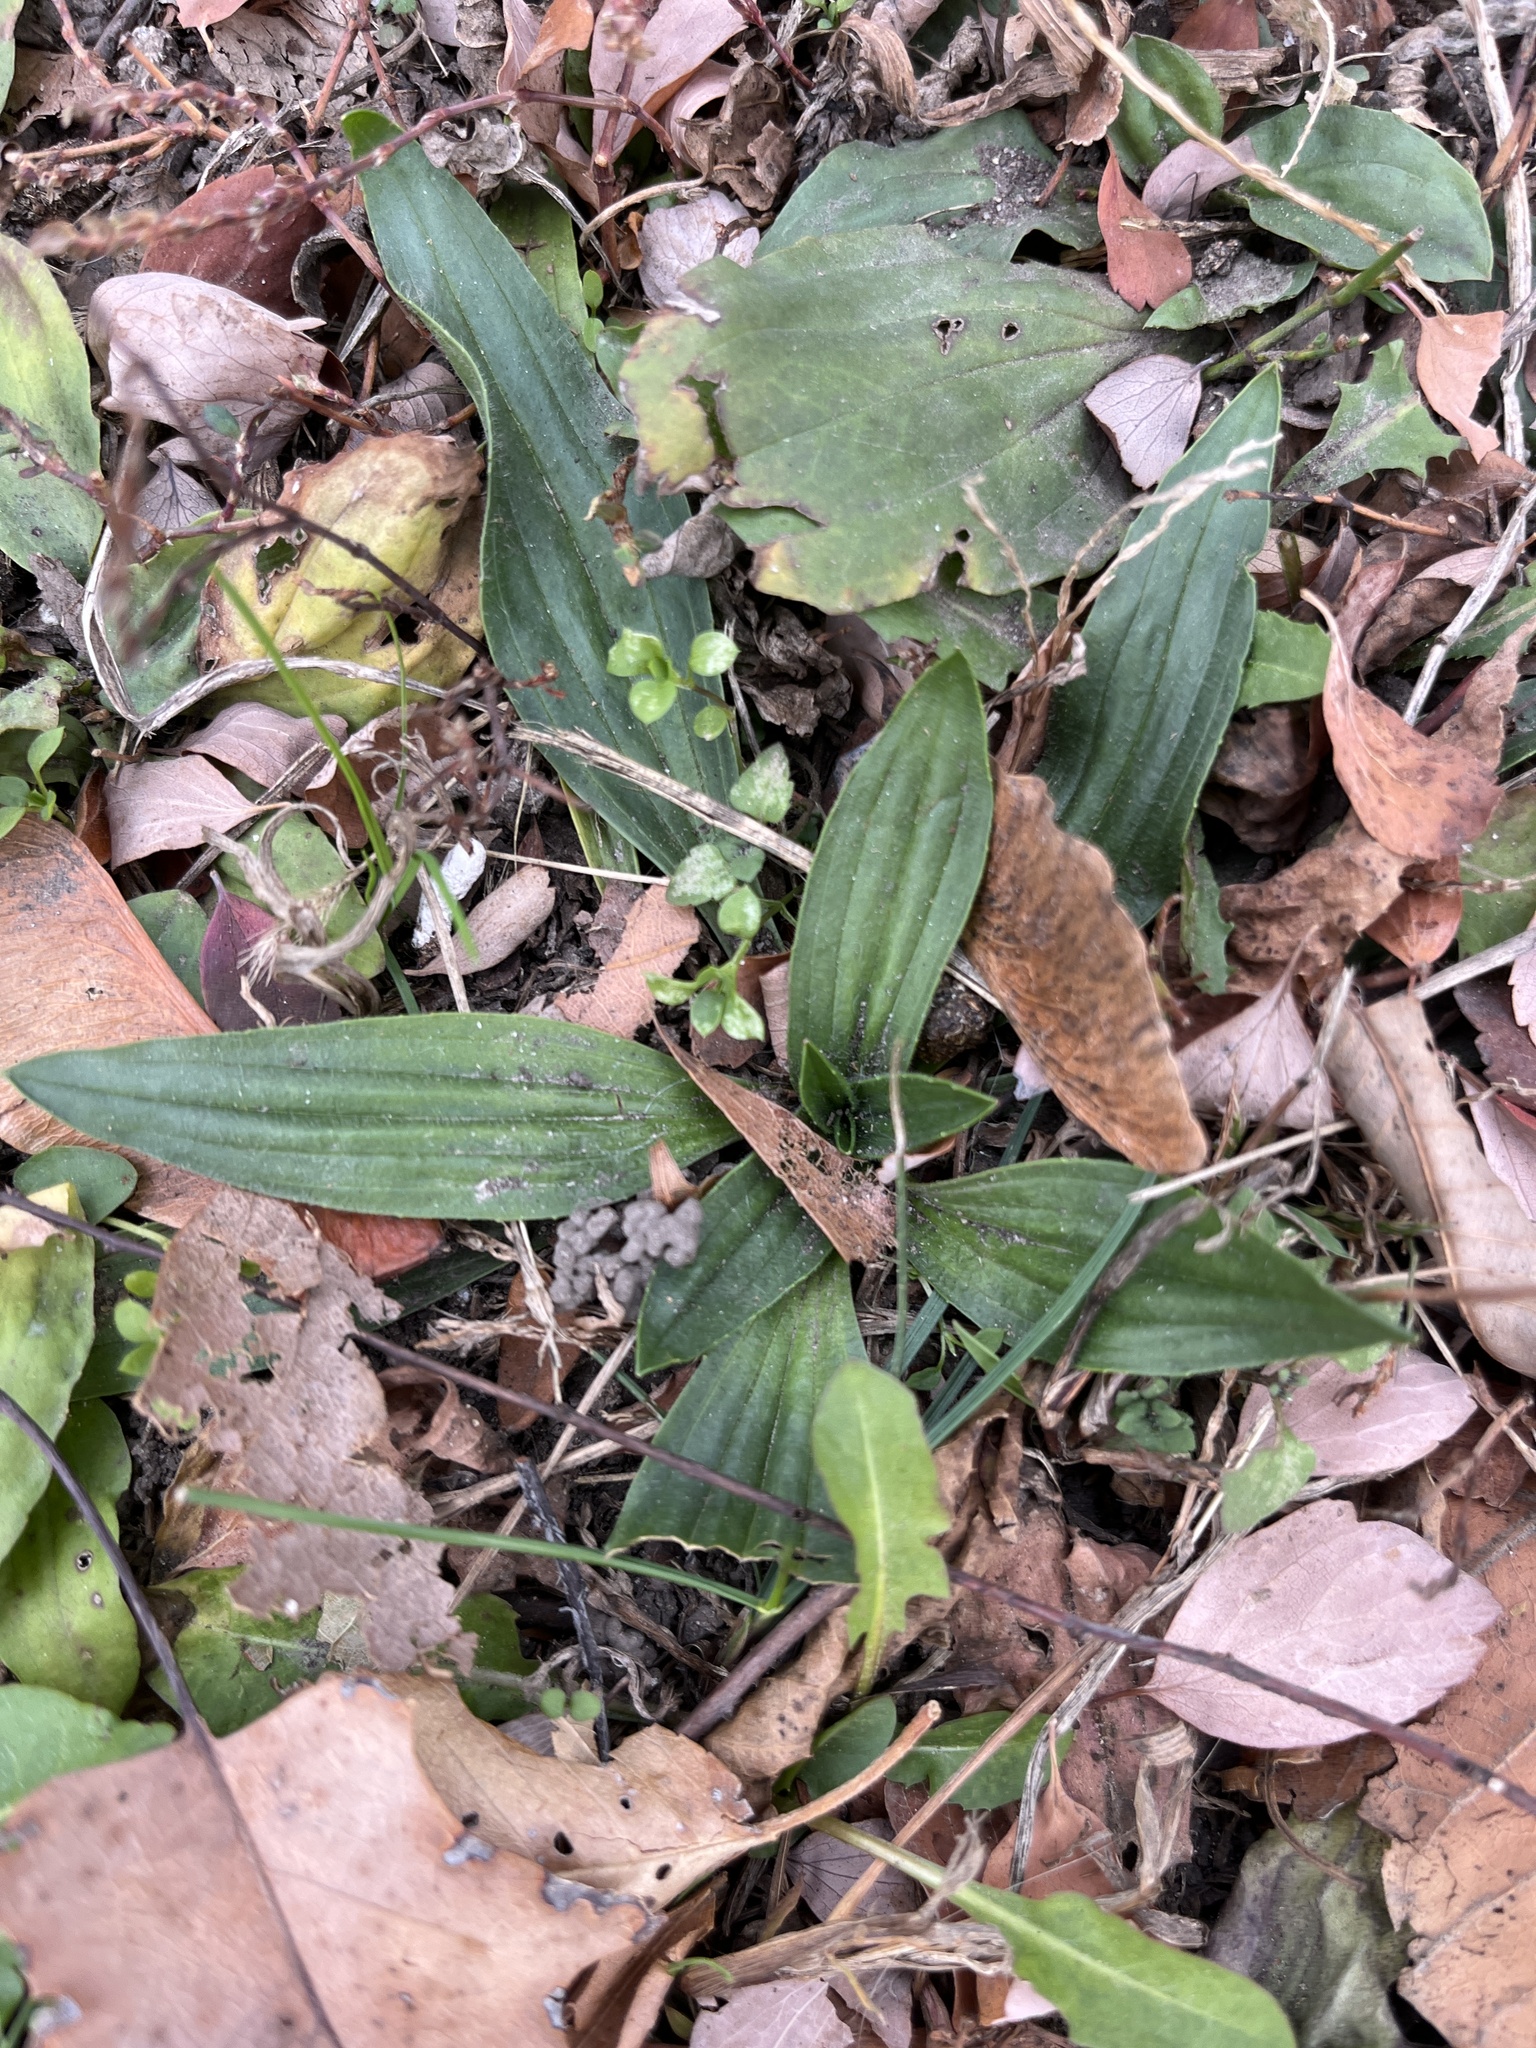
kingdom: Plantae
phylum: Tracheophyta
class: Magnoliopsida
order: Lamiales
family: Plantaginaceae
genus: Plantago
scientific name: Plantago lanceolata
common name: Ribwort plantain
